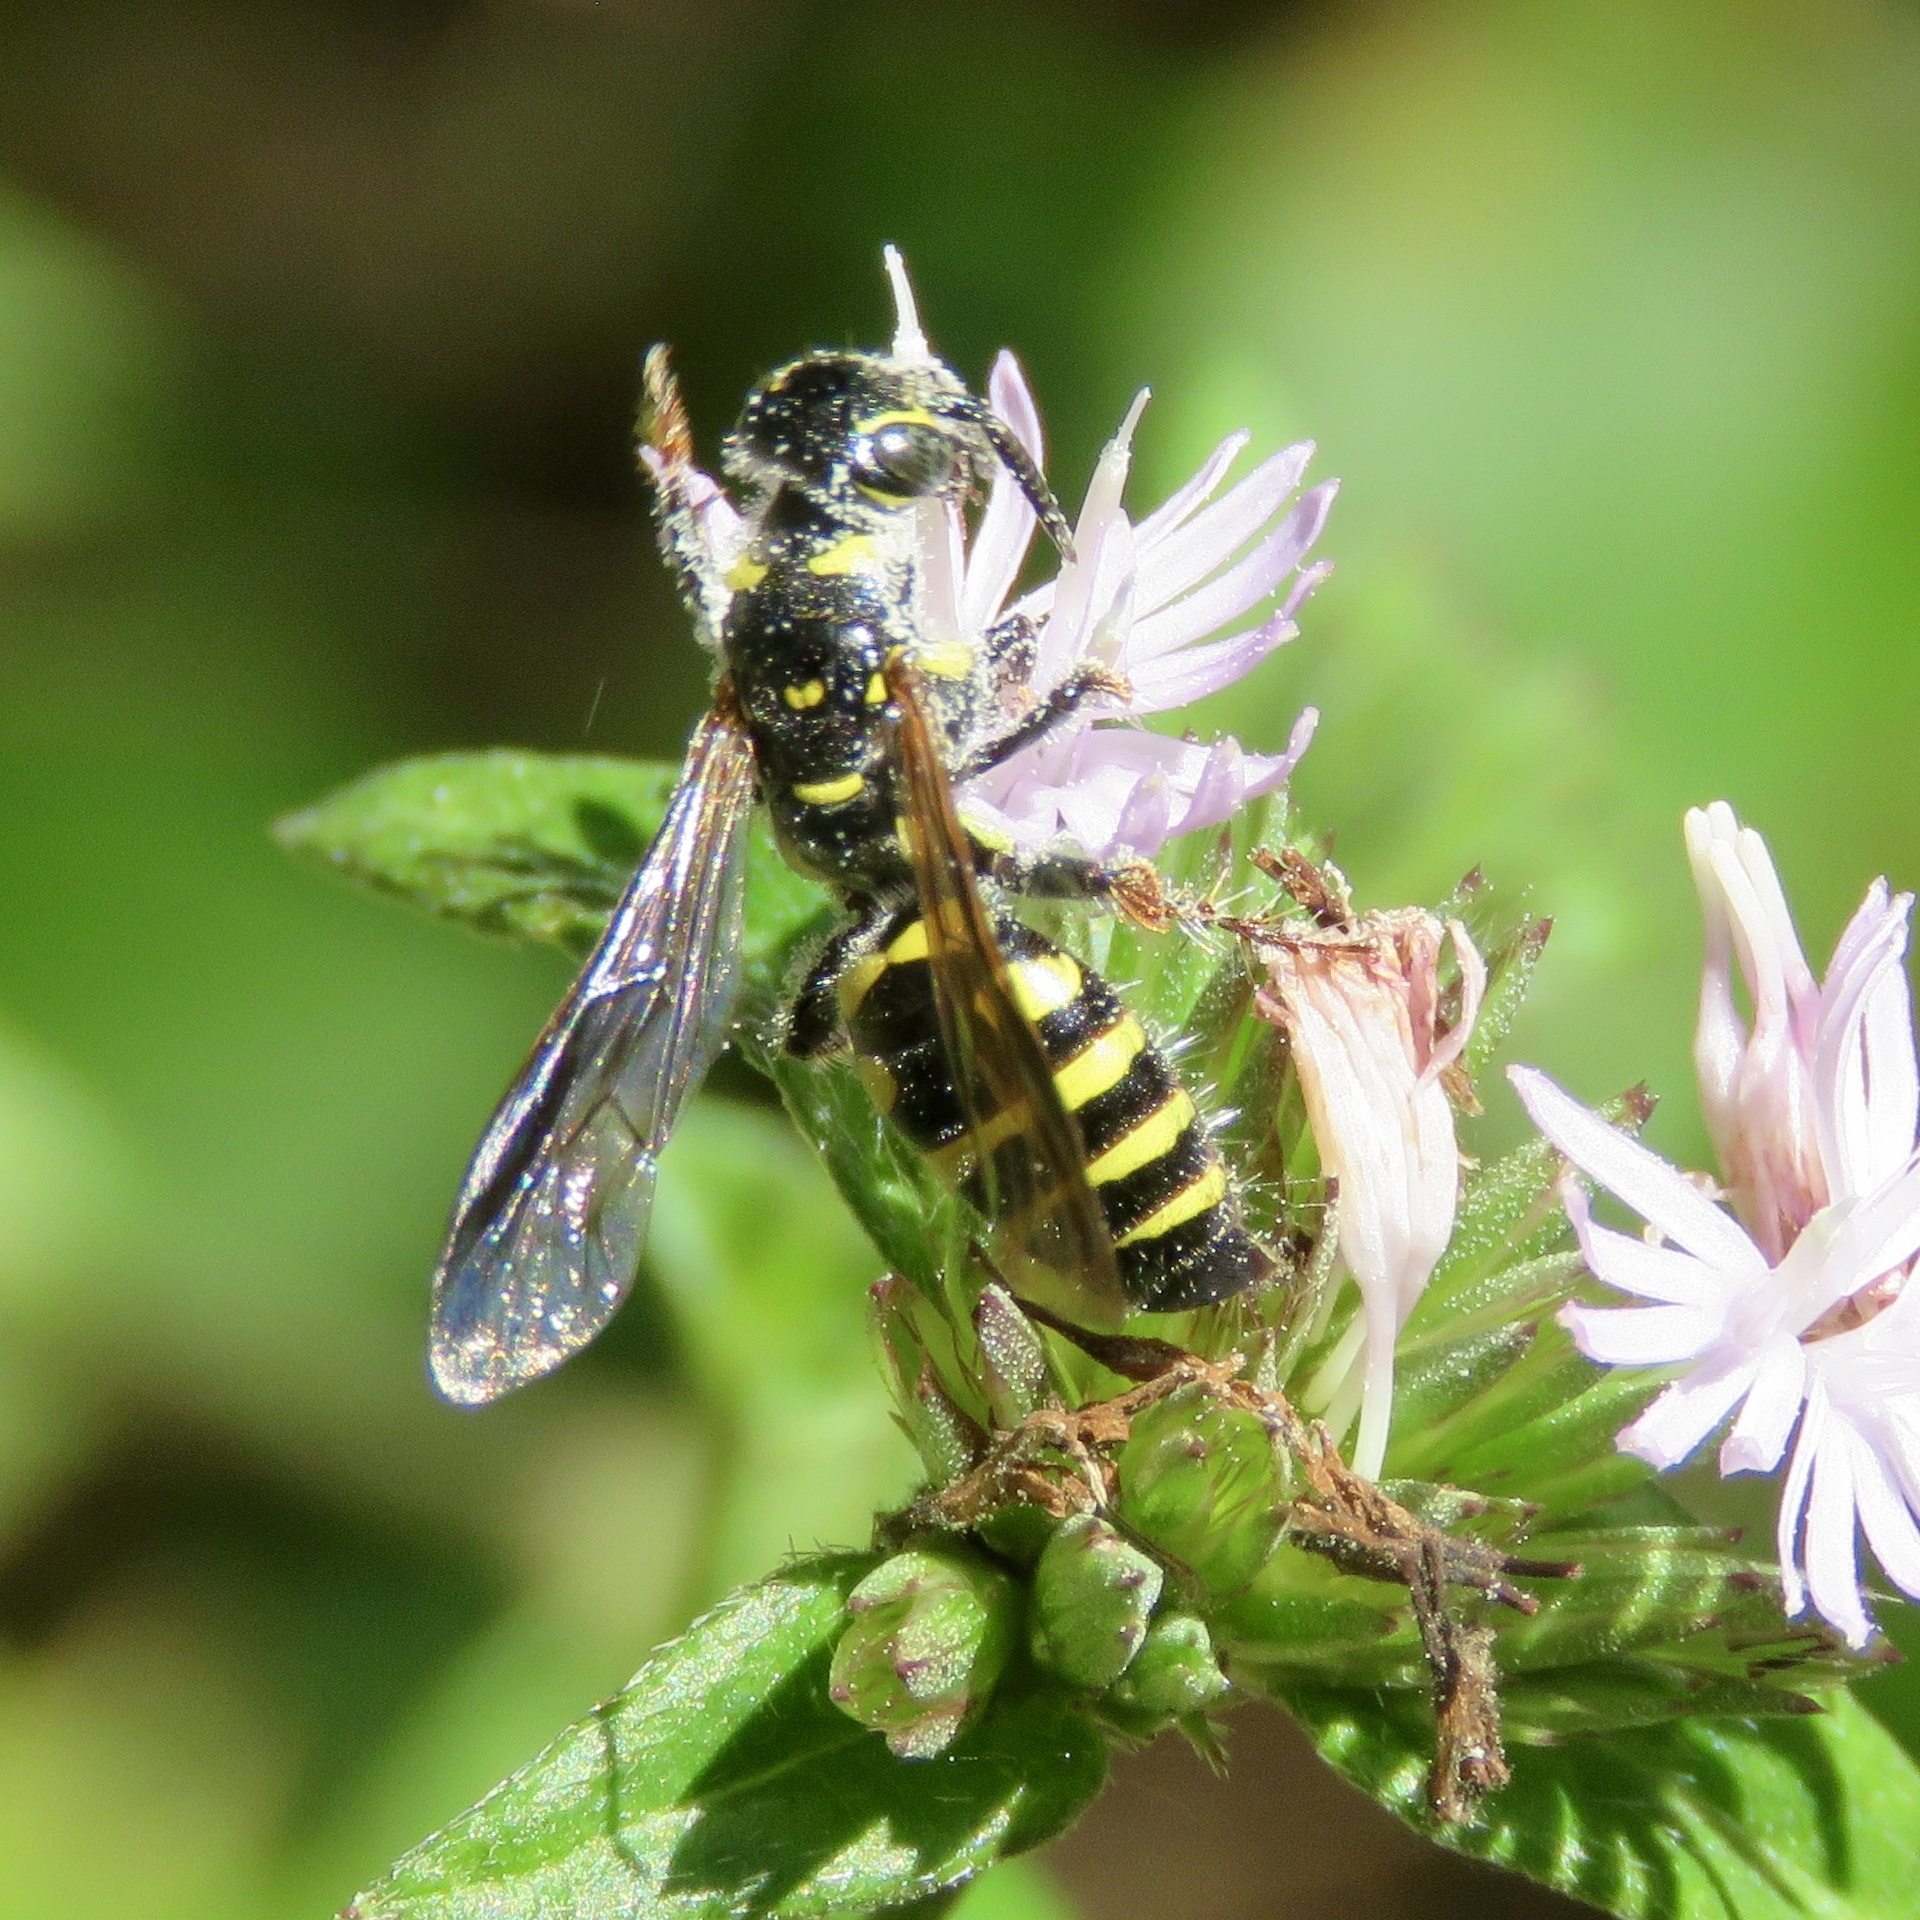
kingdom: Animalia
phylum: Arthropoda
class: Insecta
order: Hymenoptera
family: Tiphiidae
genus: Myzinum
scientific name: Myzinum maculatum
